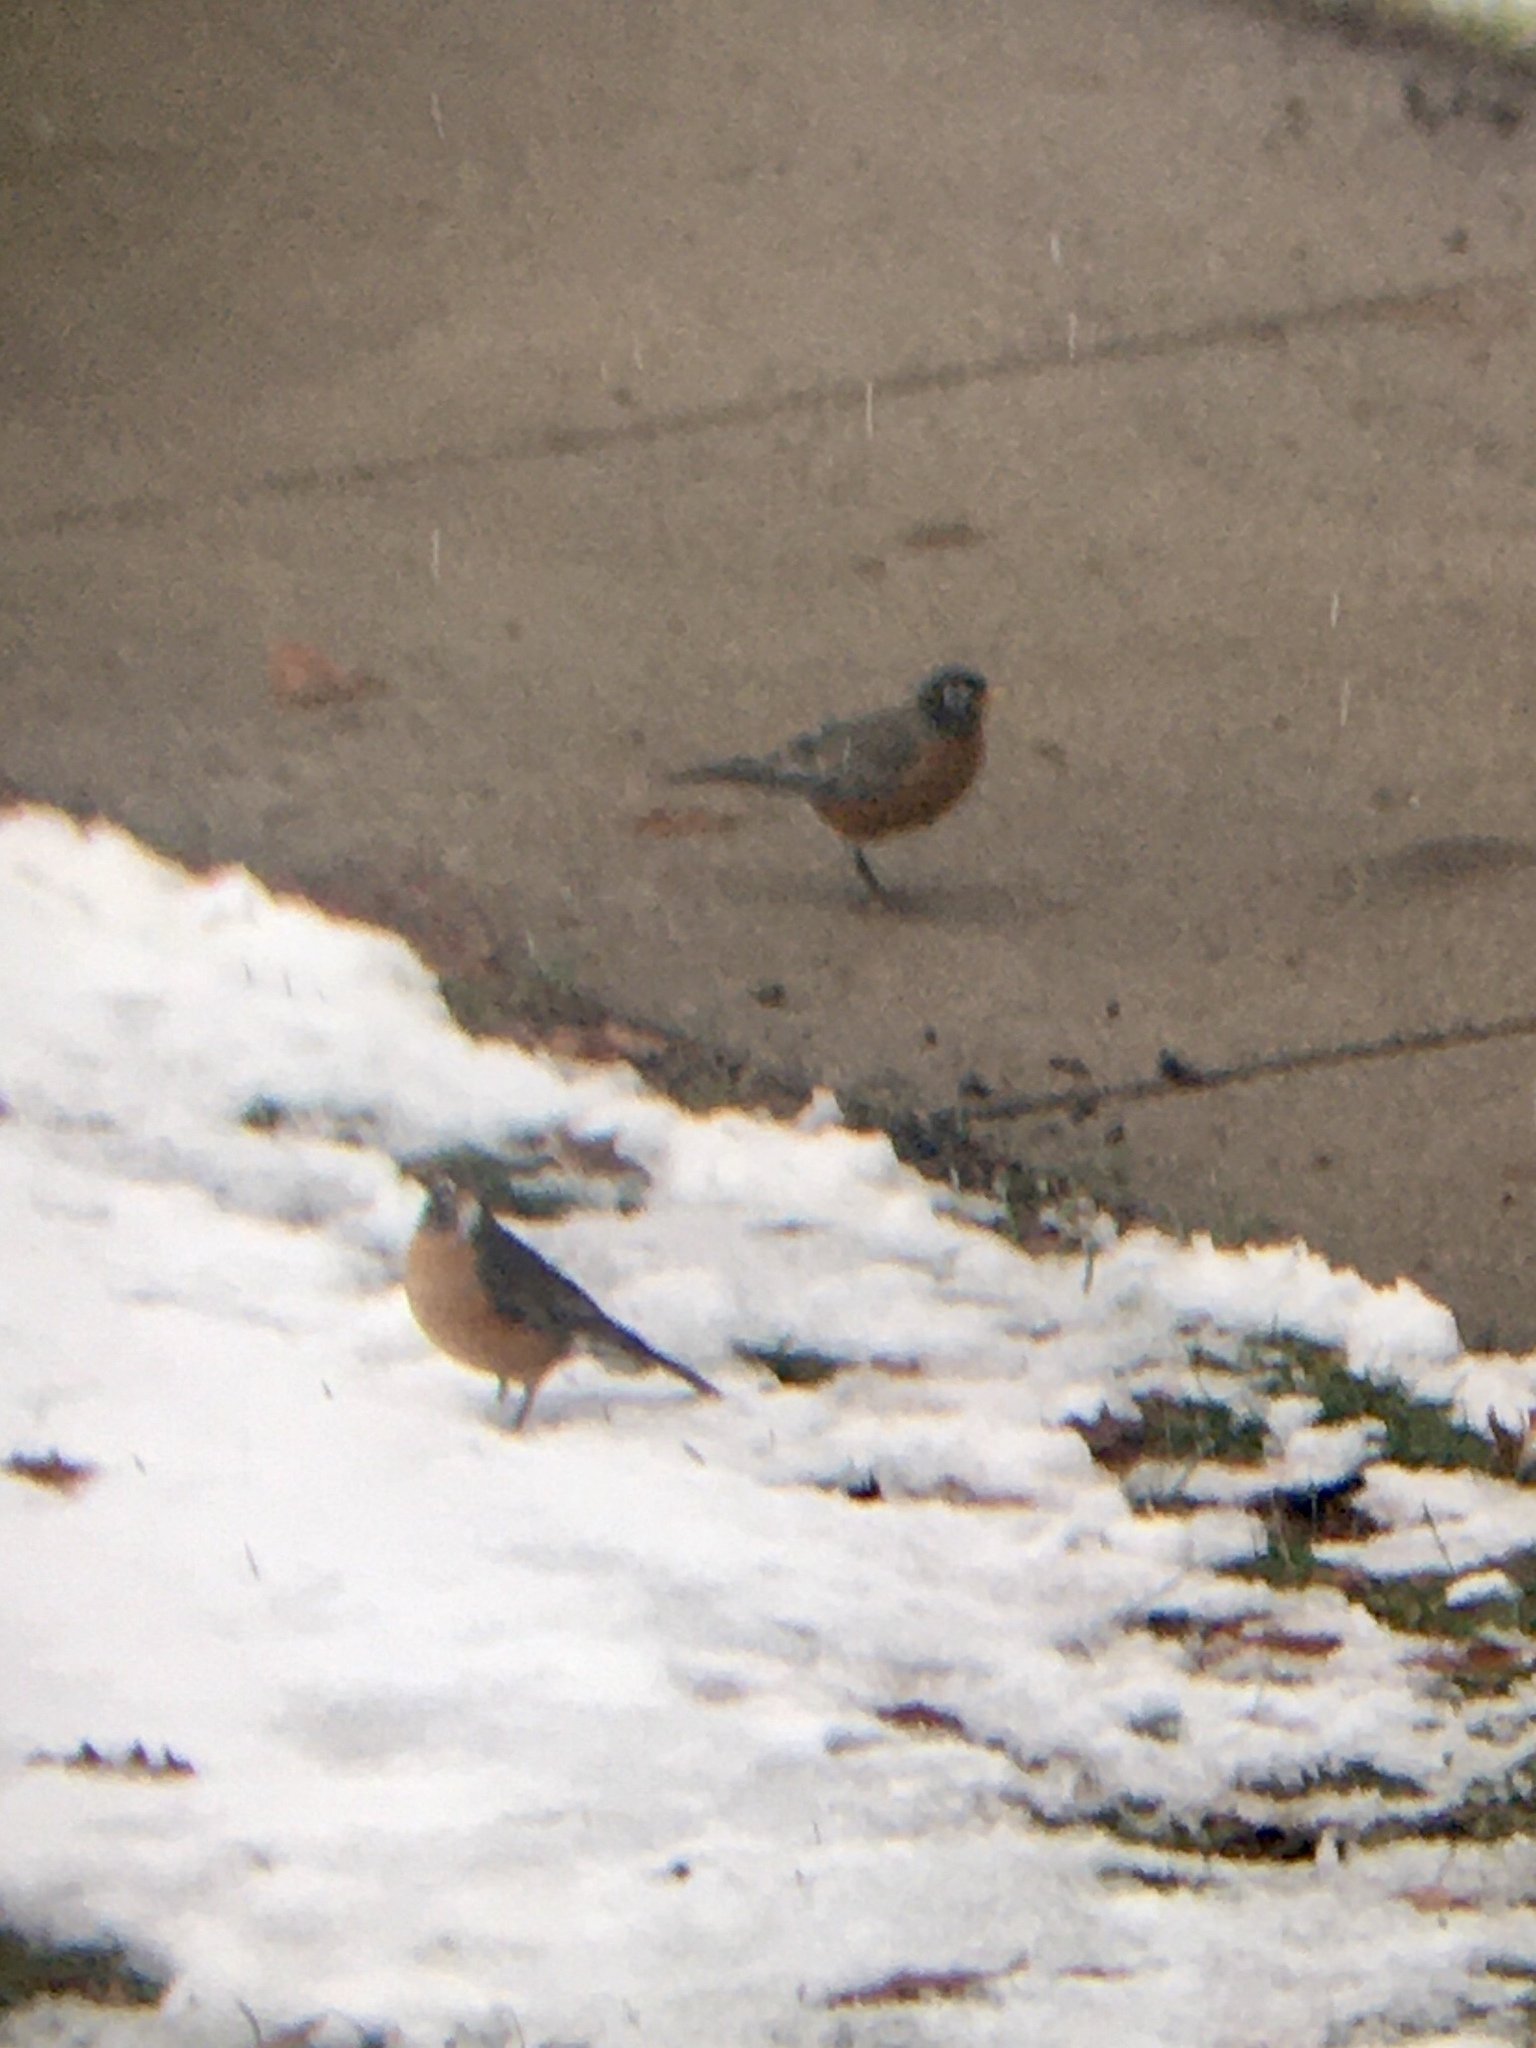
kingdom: Animalia
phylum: Chordata
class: Aves
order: Passeriformes
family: Turdidae
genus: Turdus
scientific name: Turdus migratorius
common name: American robin
